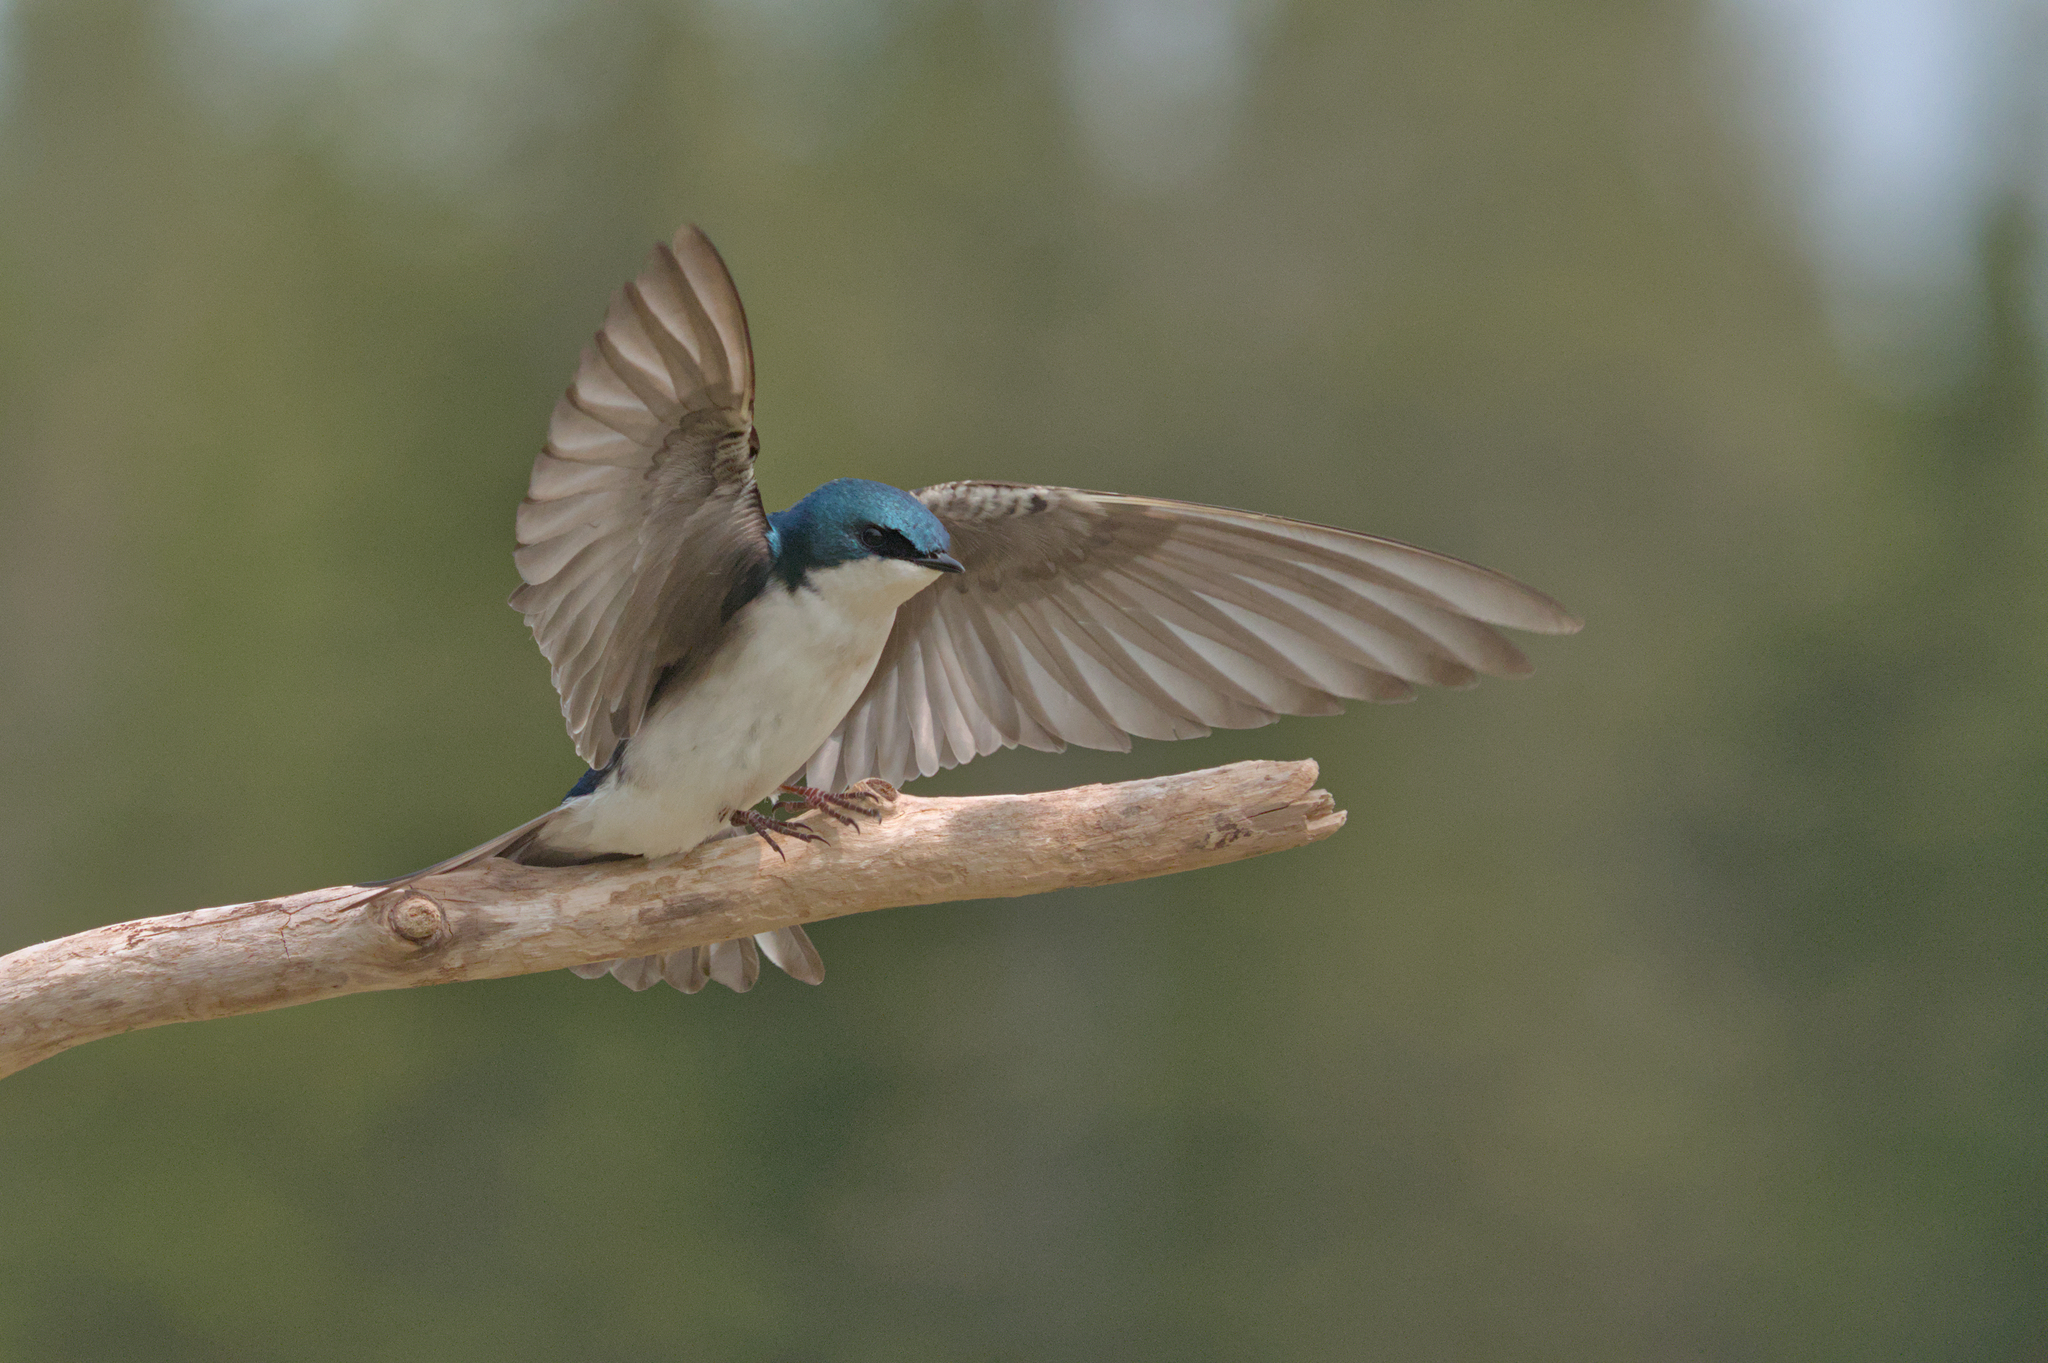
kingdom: Animalia
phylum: Chordata
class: Aves
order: Passeriformes
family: Hirundinidae
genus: Tachycineta
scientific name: Tachycineta bicolor
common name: Tree swallow
